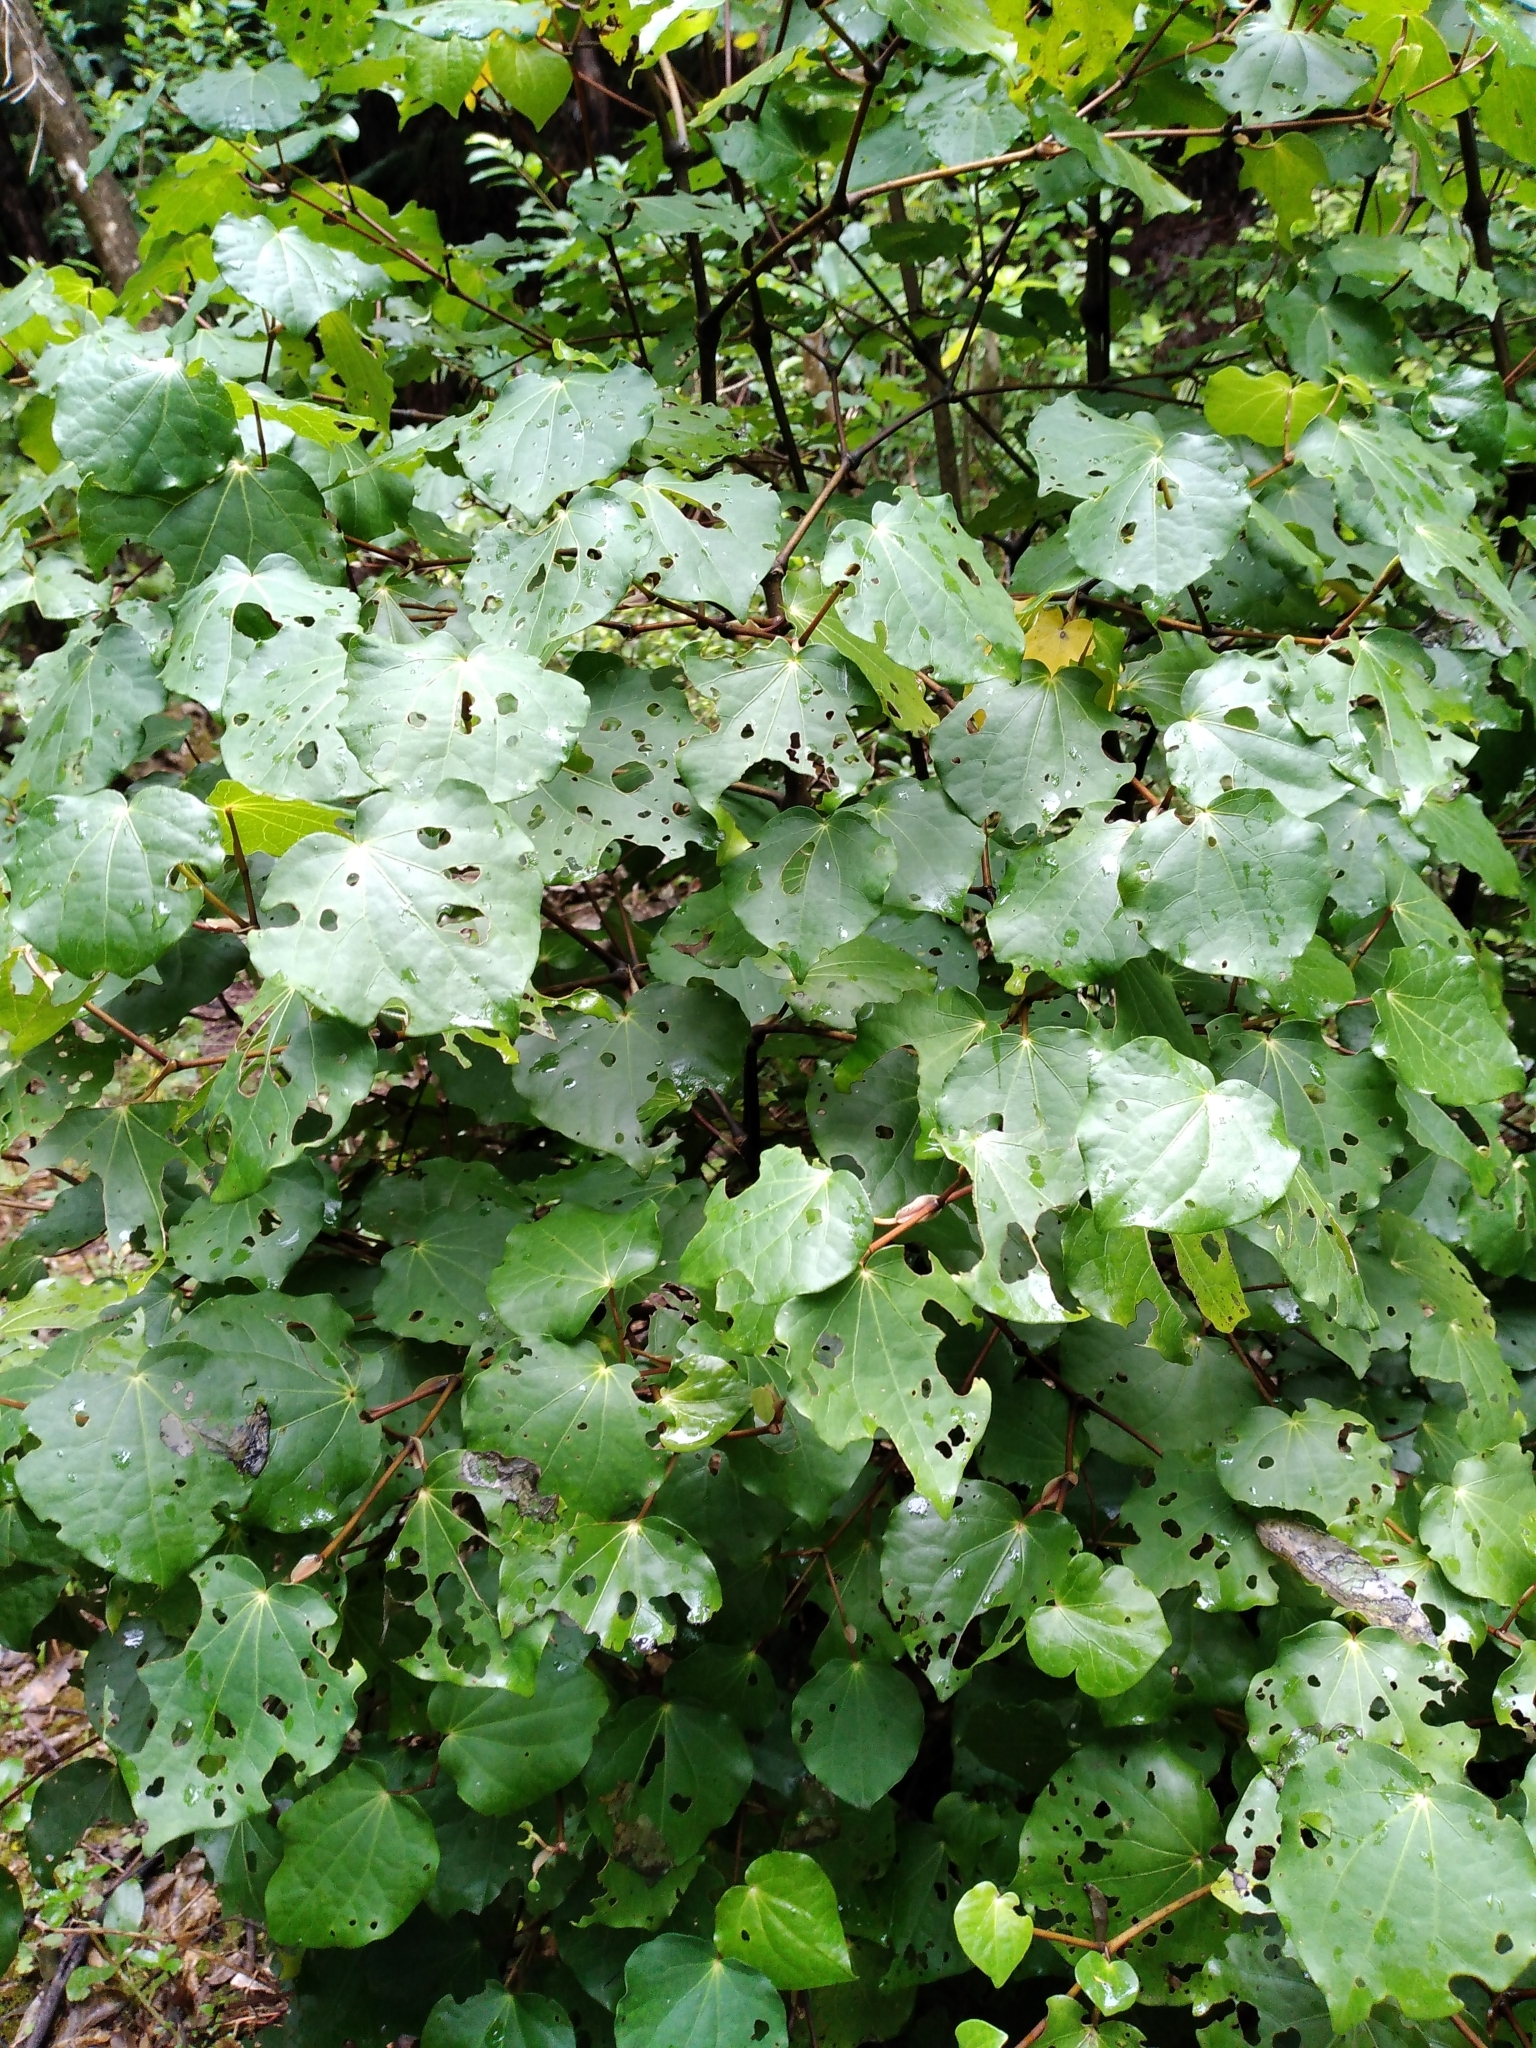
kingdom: Plantae
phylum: Tracheophyta
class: Magnoliopsida
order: Piperales
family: Piperaceae
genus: Macropiper
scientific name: Macropiper excelsum
